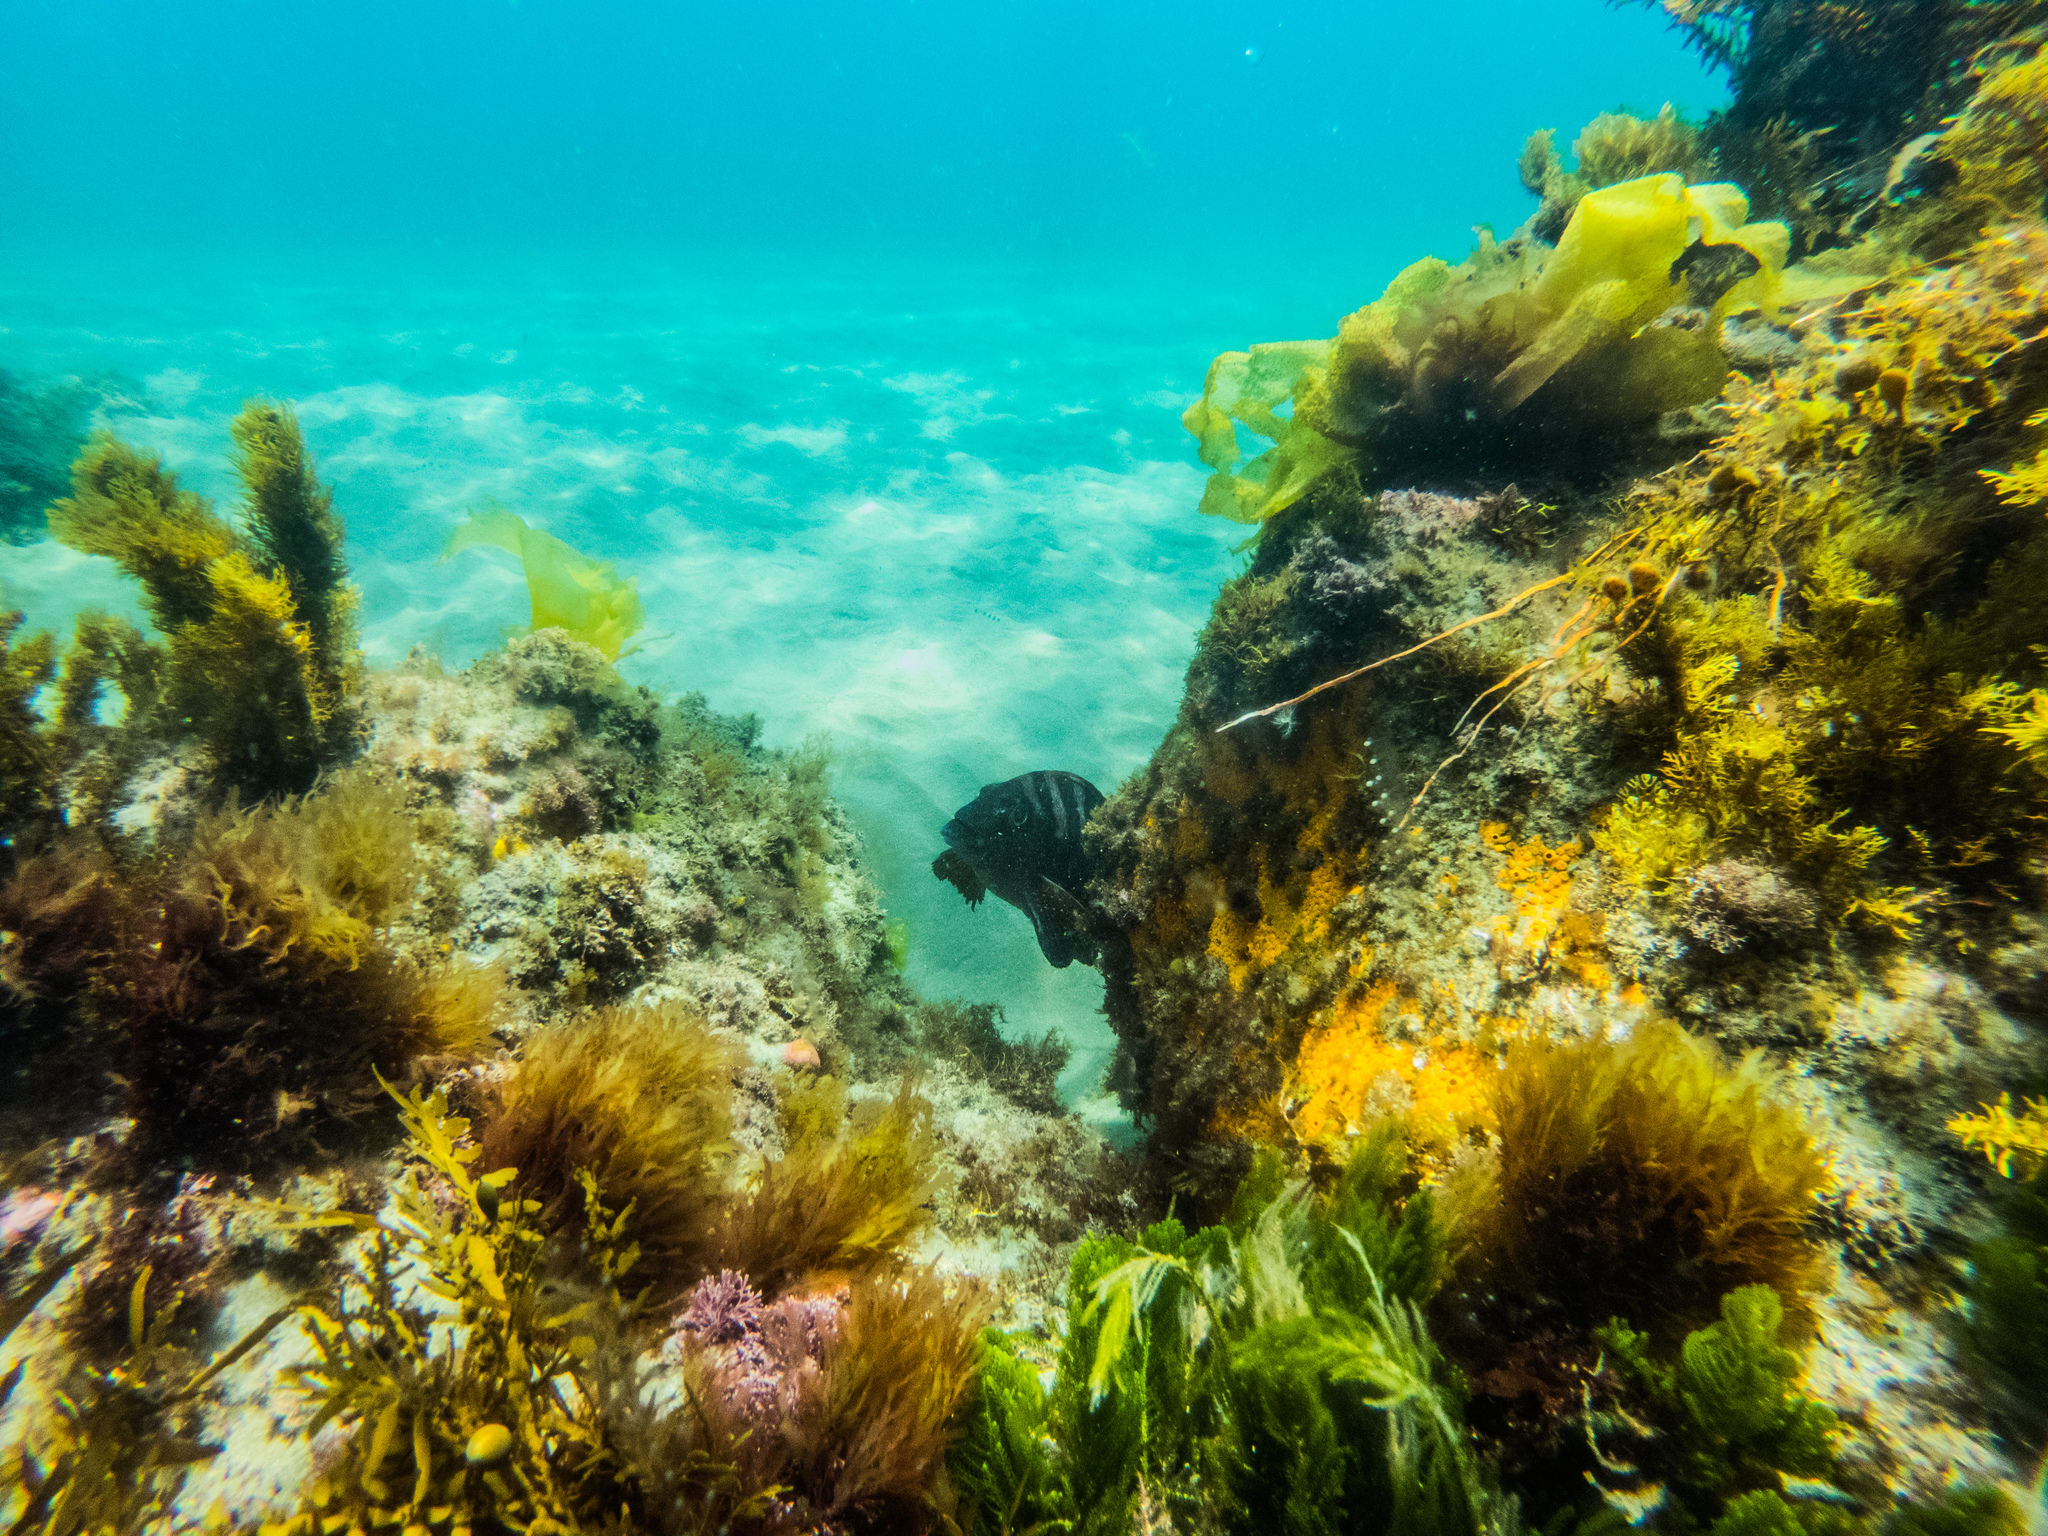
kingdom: Animalia
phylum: Chordata
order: Perciformes
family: Cheilodactylidae
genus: Cheilodactylus
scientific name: Cheilodactylus spectabilis
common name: Red moki
